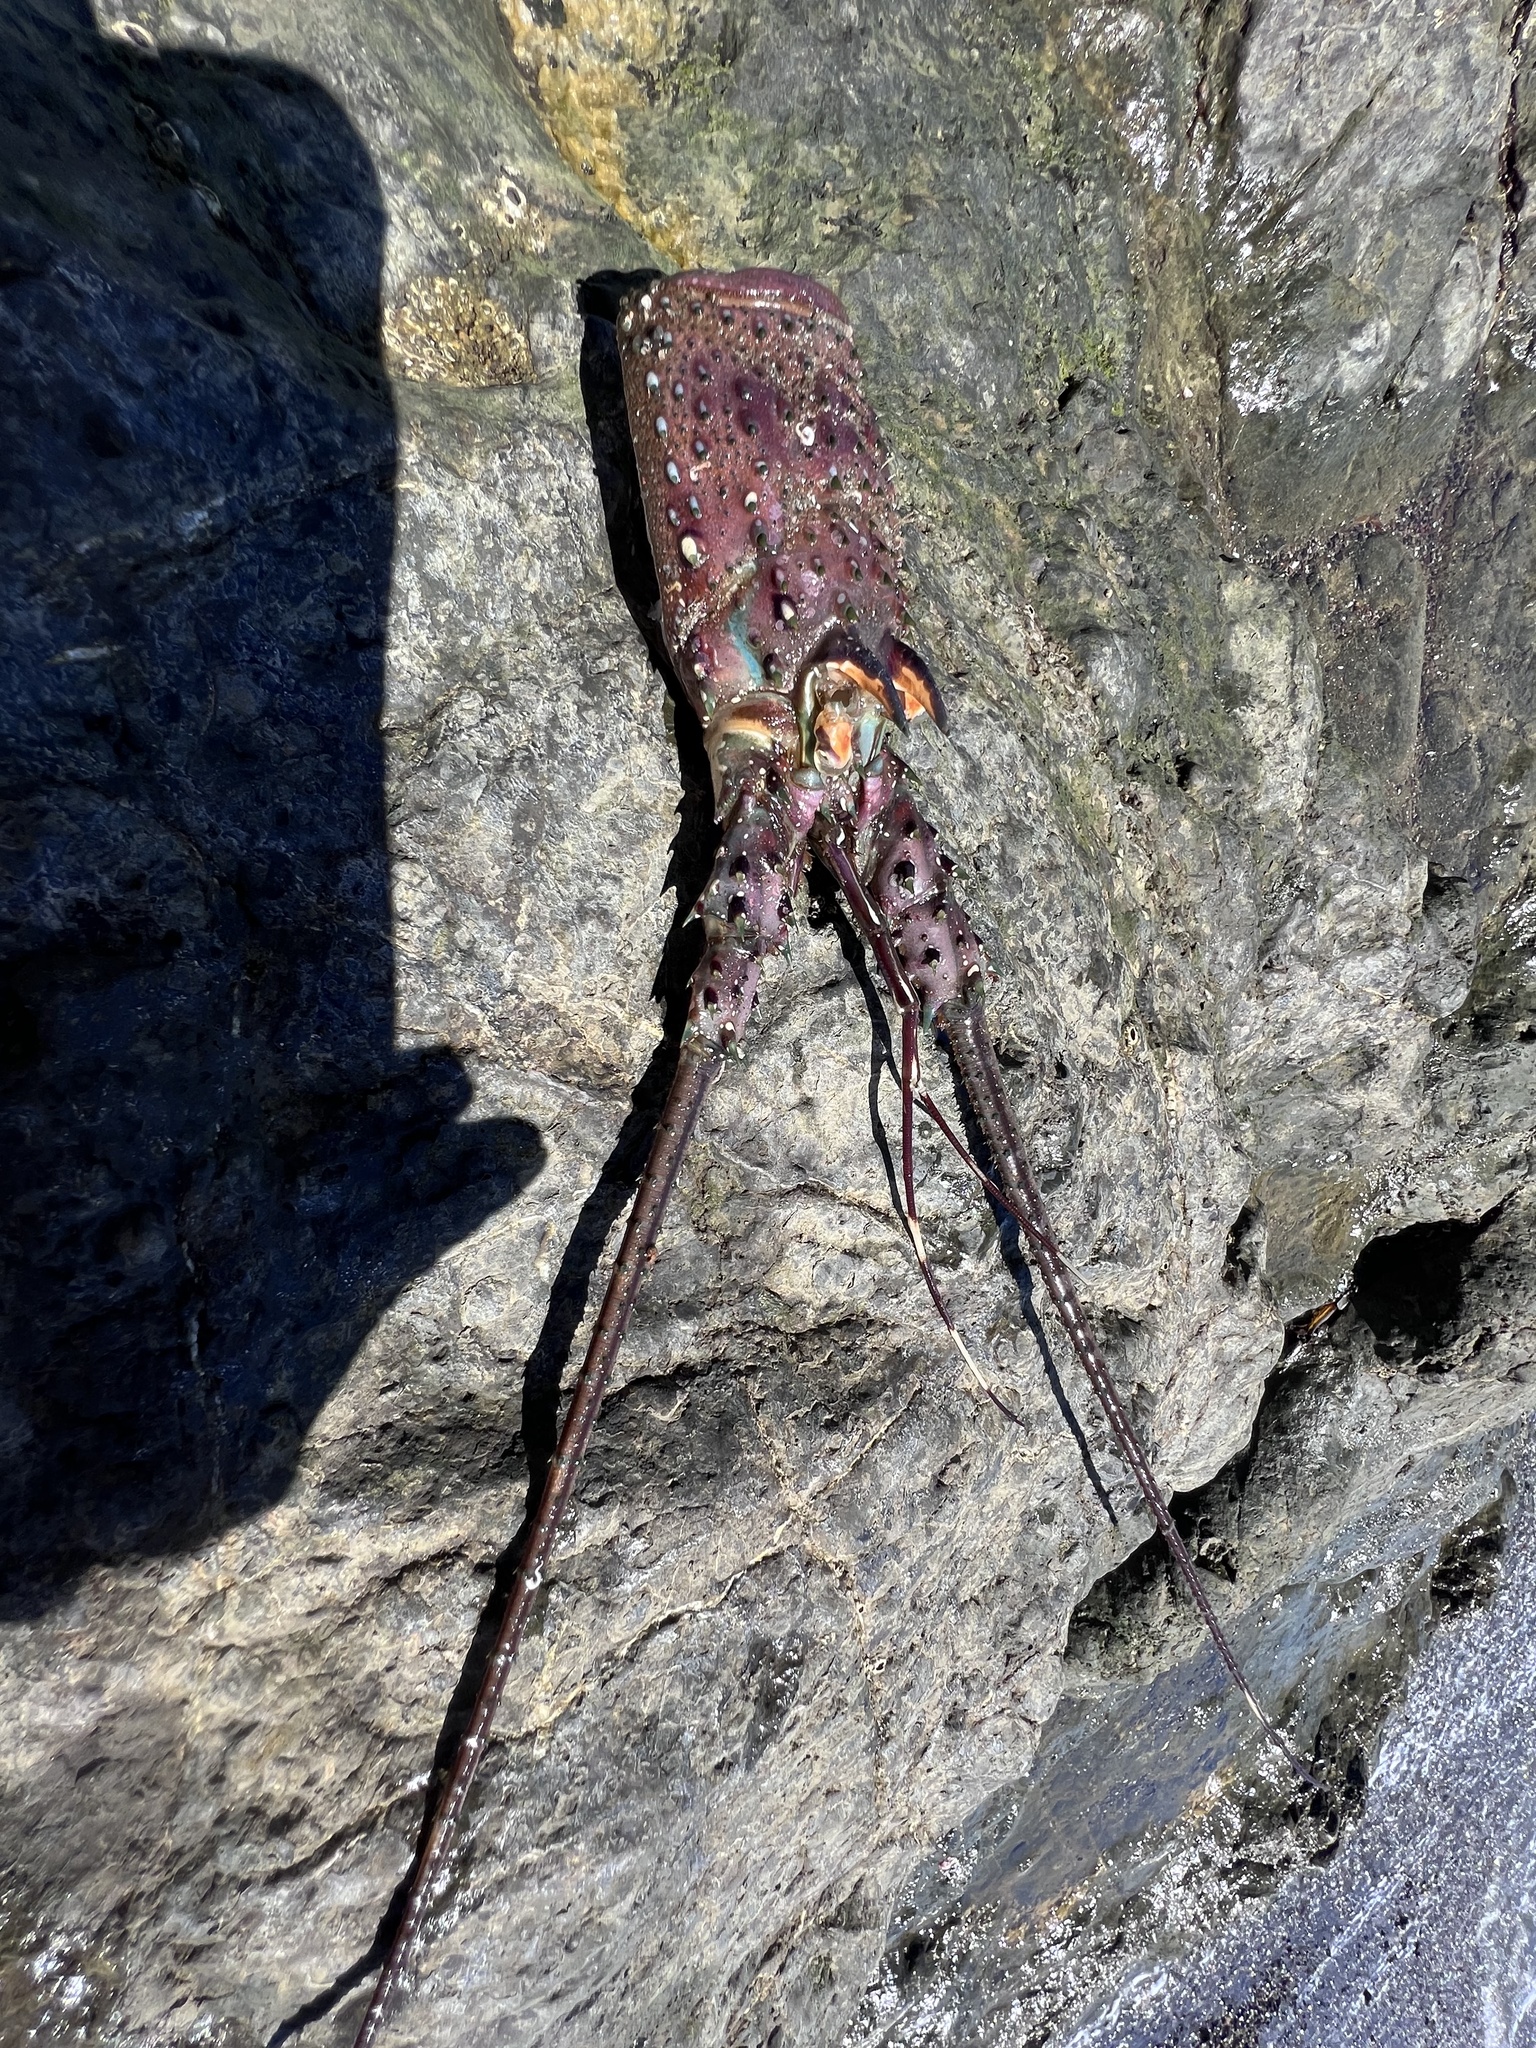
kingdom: Animalia
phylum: Arthropoda
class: Malacostraca
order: Decapoda
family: Palinuridae
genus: Panulirus
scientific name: Panulirus gracilis
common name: Green spiny lobster
